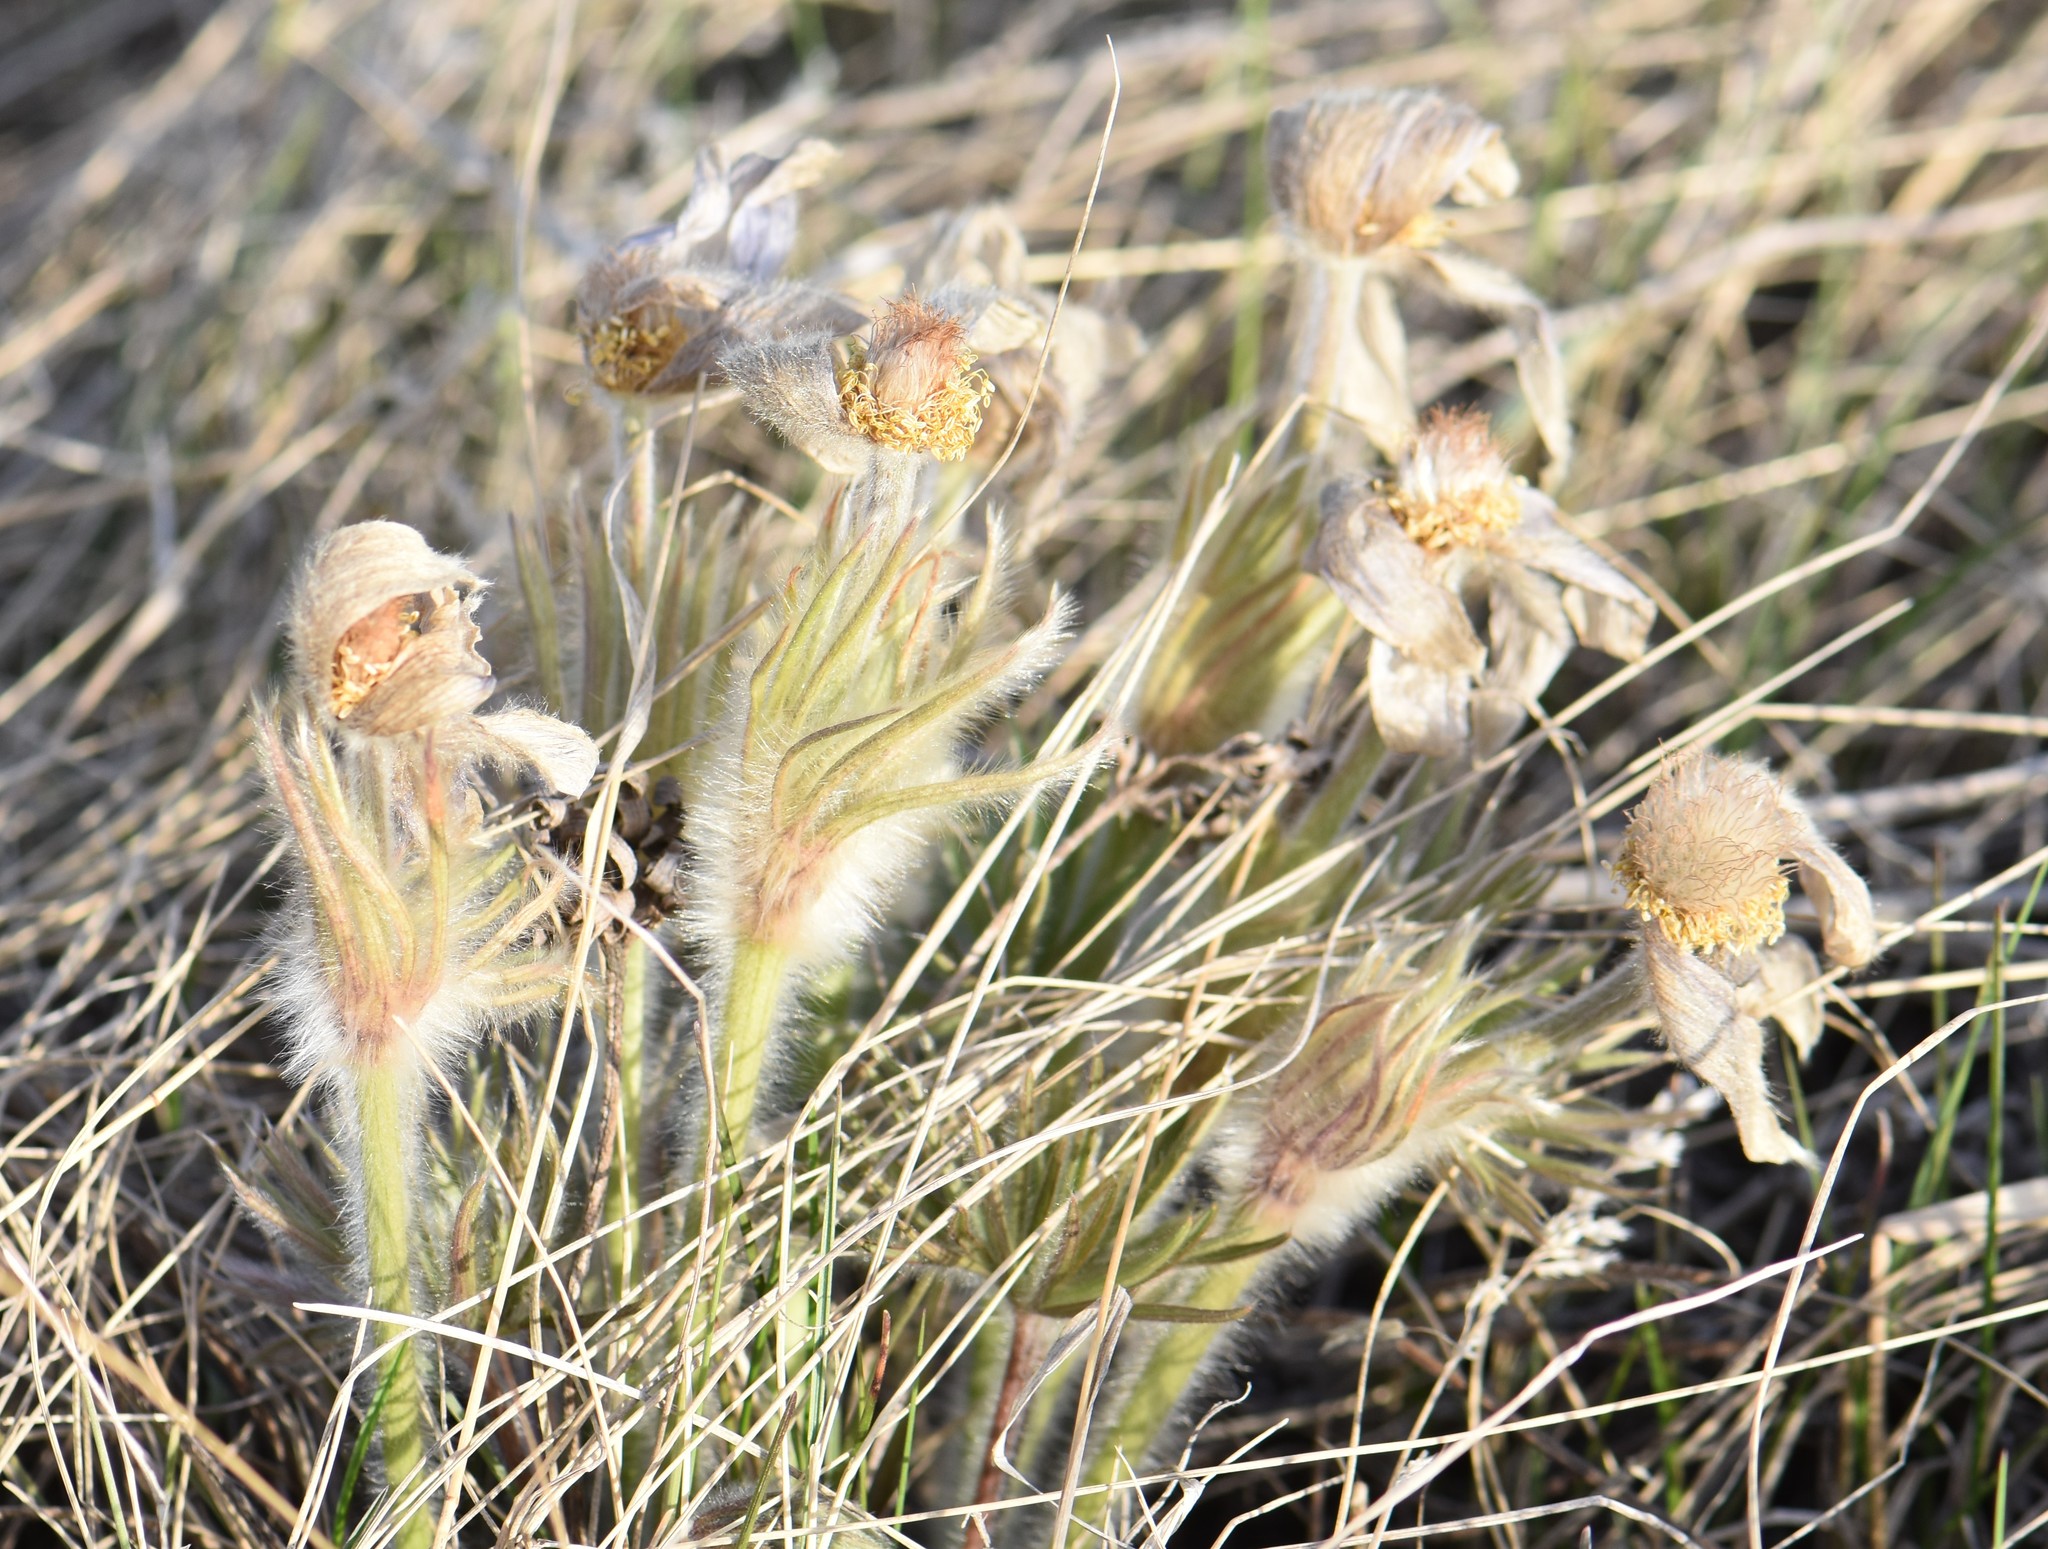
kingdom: Plantae
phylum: Tracheophyta
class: Magnoliopsida
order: Ranunculales
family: Ranunculaceae
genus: Pulsatilla
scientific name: Pulsatilla nuttalliana
